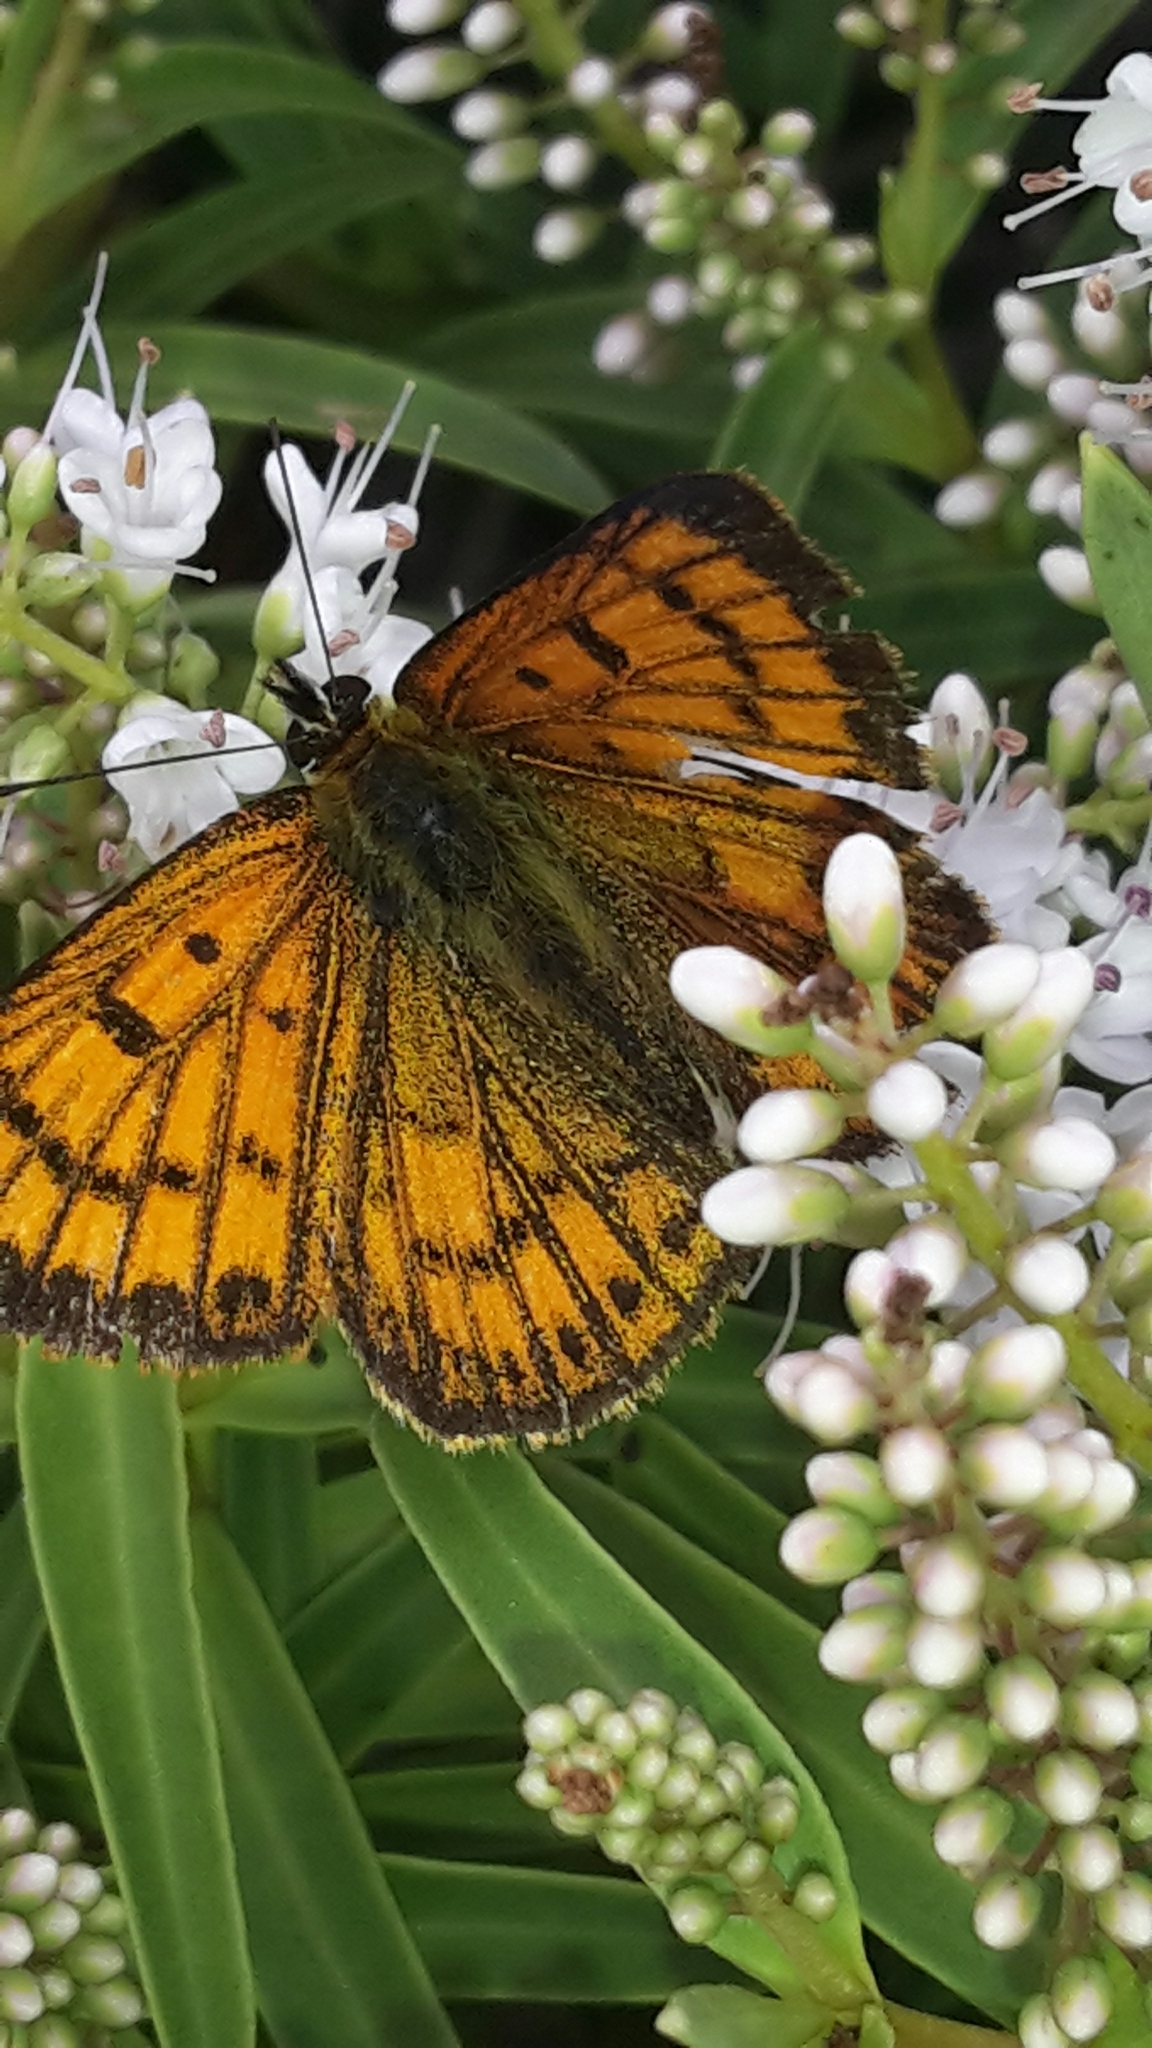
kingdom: Animalia
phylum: Arthropoda
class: Insecta
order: Lepidoptera
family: Lycaenidae
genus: Lycaena
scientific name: Lycaena salustius
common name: North island coastal copper
